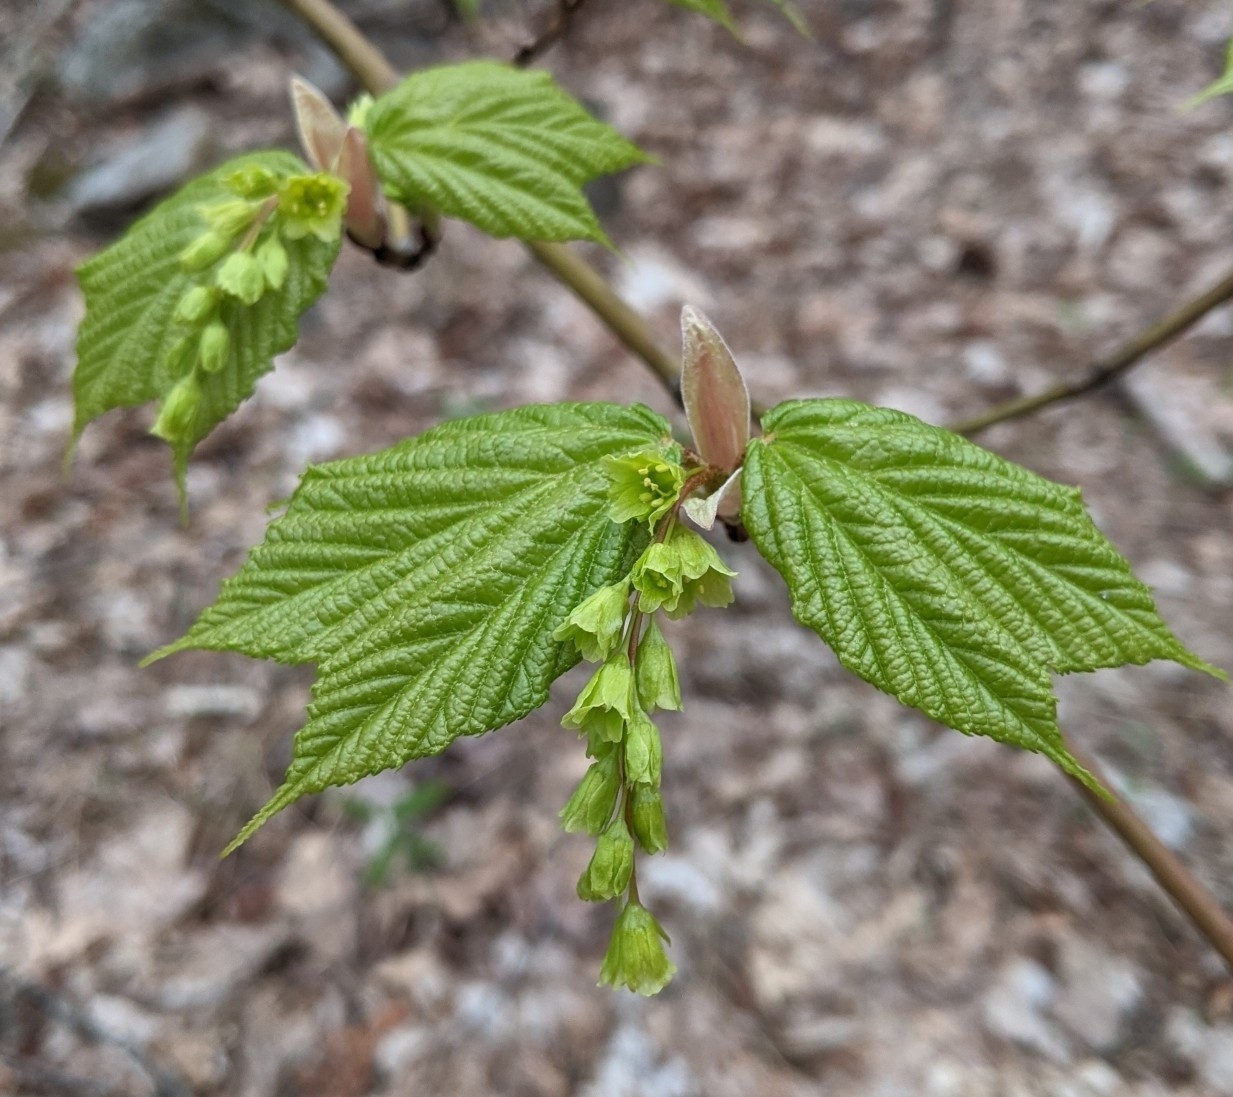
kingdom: Plantae
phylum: Tracheophyta
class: Magnoliopsida
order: Sapindales
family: Sapindaceae
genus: Acer
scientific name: Acer pensylvanicum
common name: Moosewood
